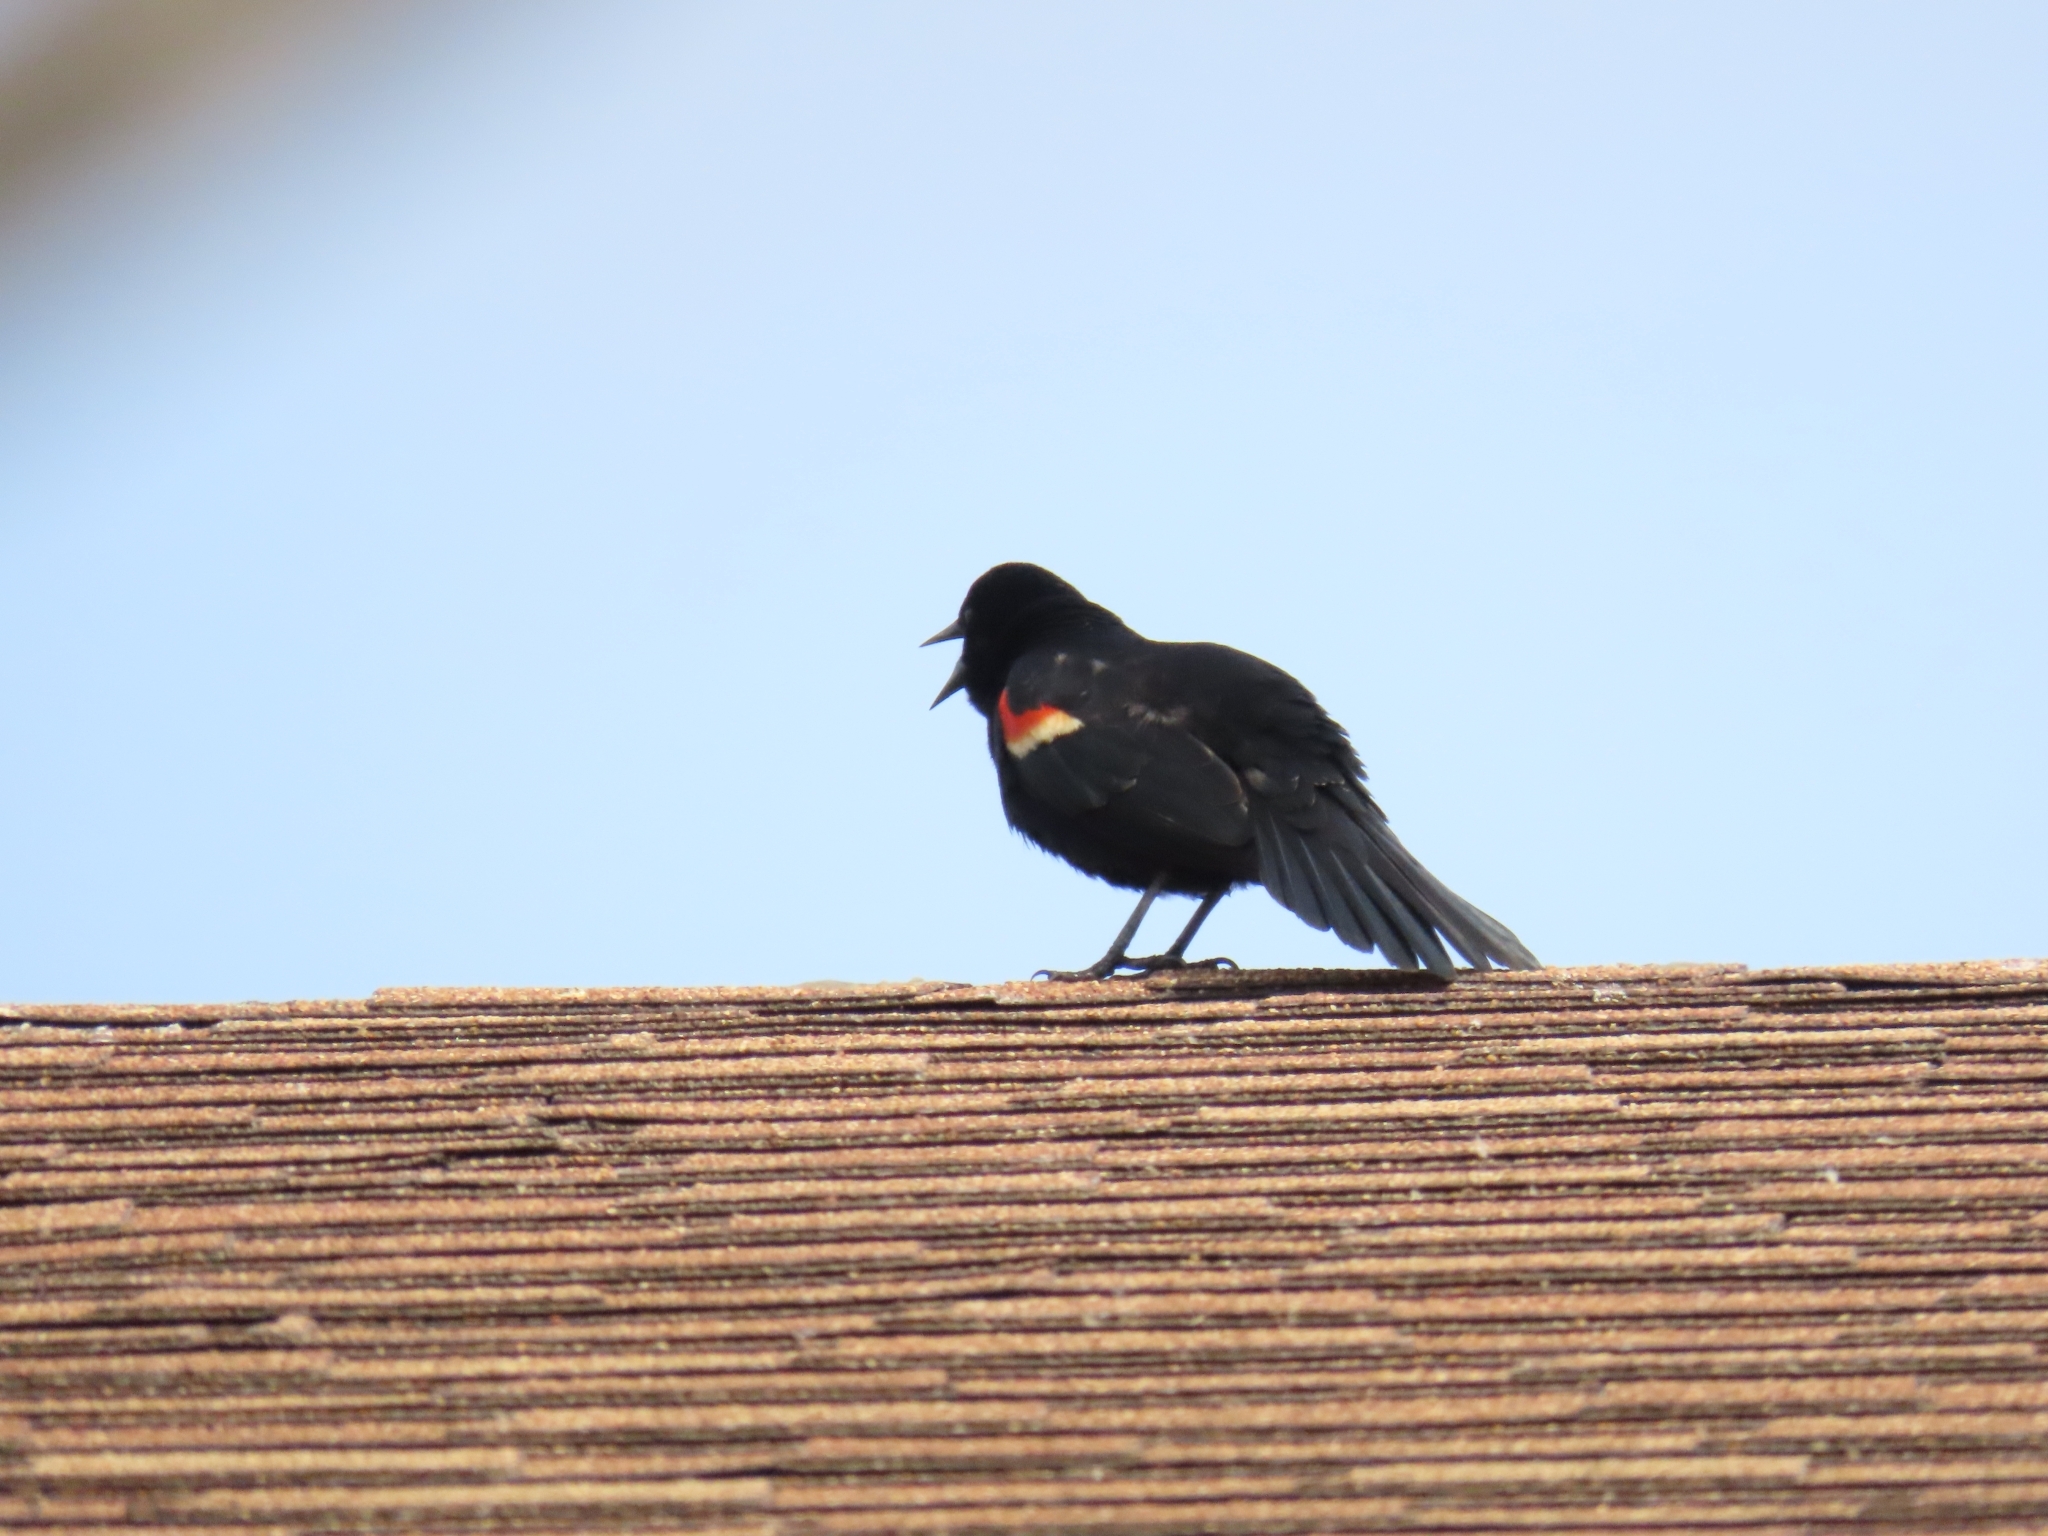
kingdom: Animalia
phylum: Chordata
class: Aves
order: Passeriformes
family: Icteridae
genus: Agelaius
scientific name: Agelaius phoeniceus
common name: Red-winged blackbird
